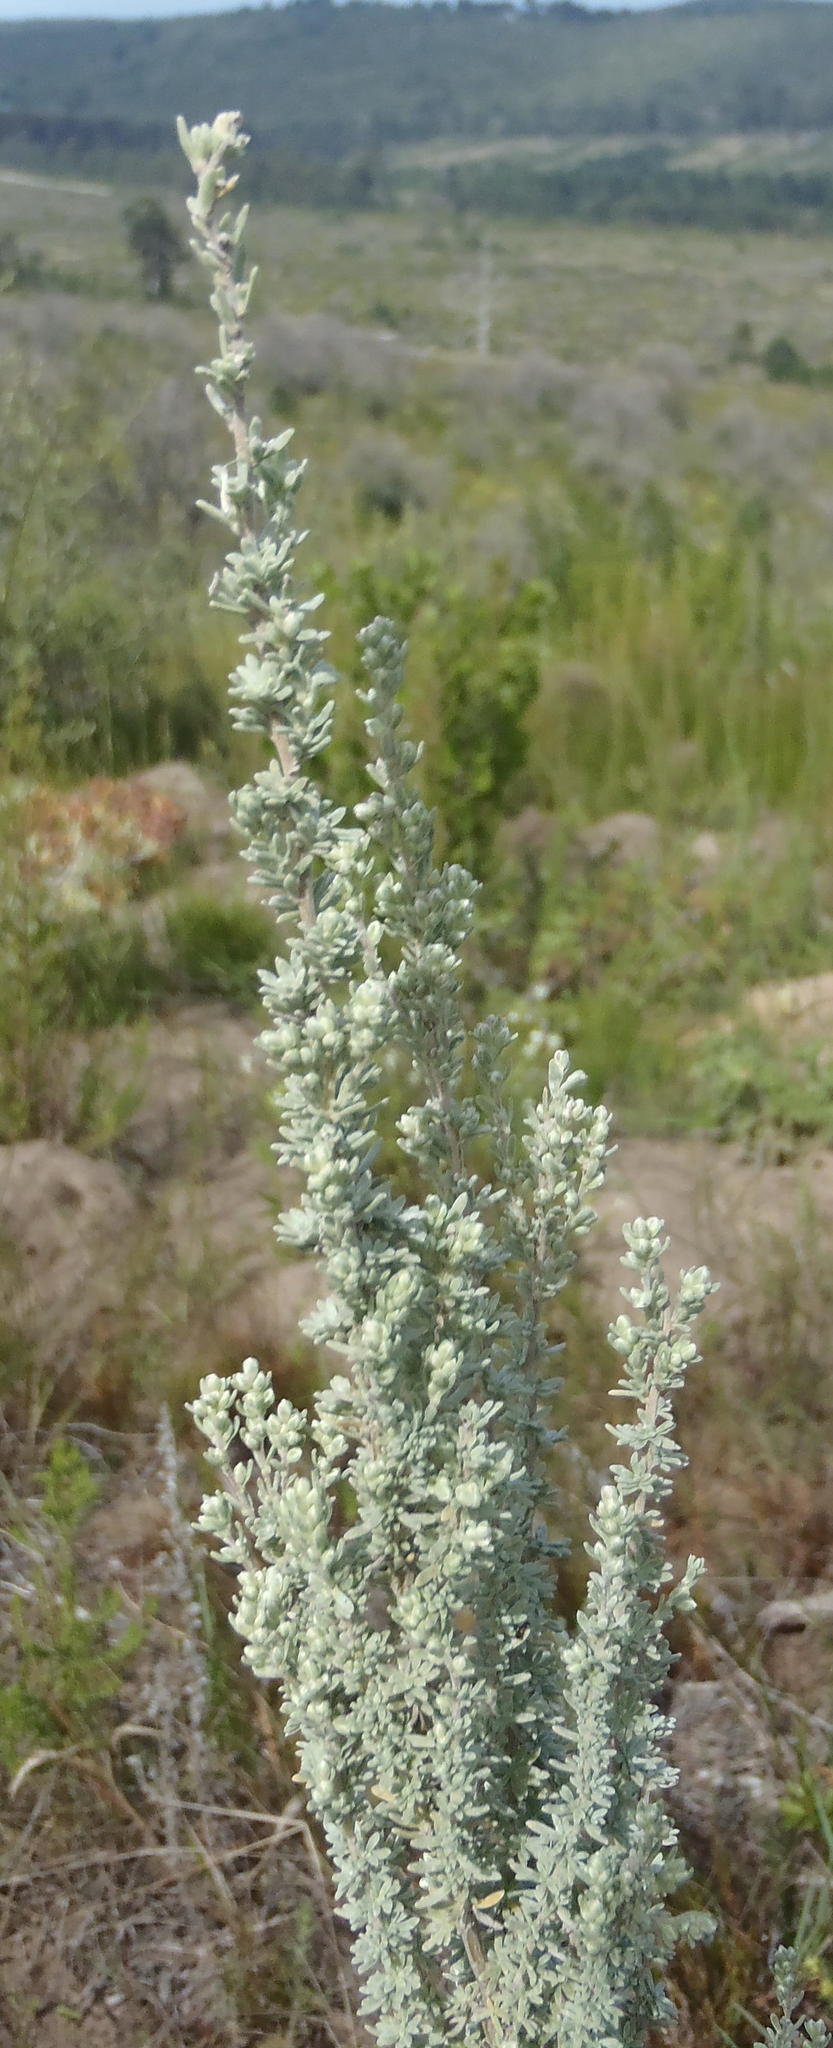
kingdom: Plantae
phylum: Tracheophyta
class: Magnoliopsida
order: Asterales
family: Asteraceae
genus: Eriocephalus
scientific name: Eriocephalus racemosus
